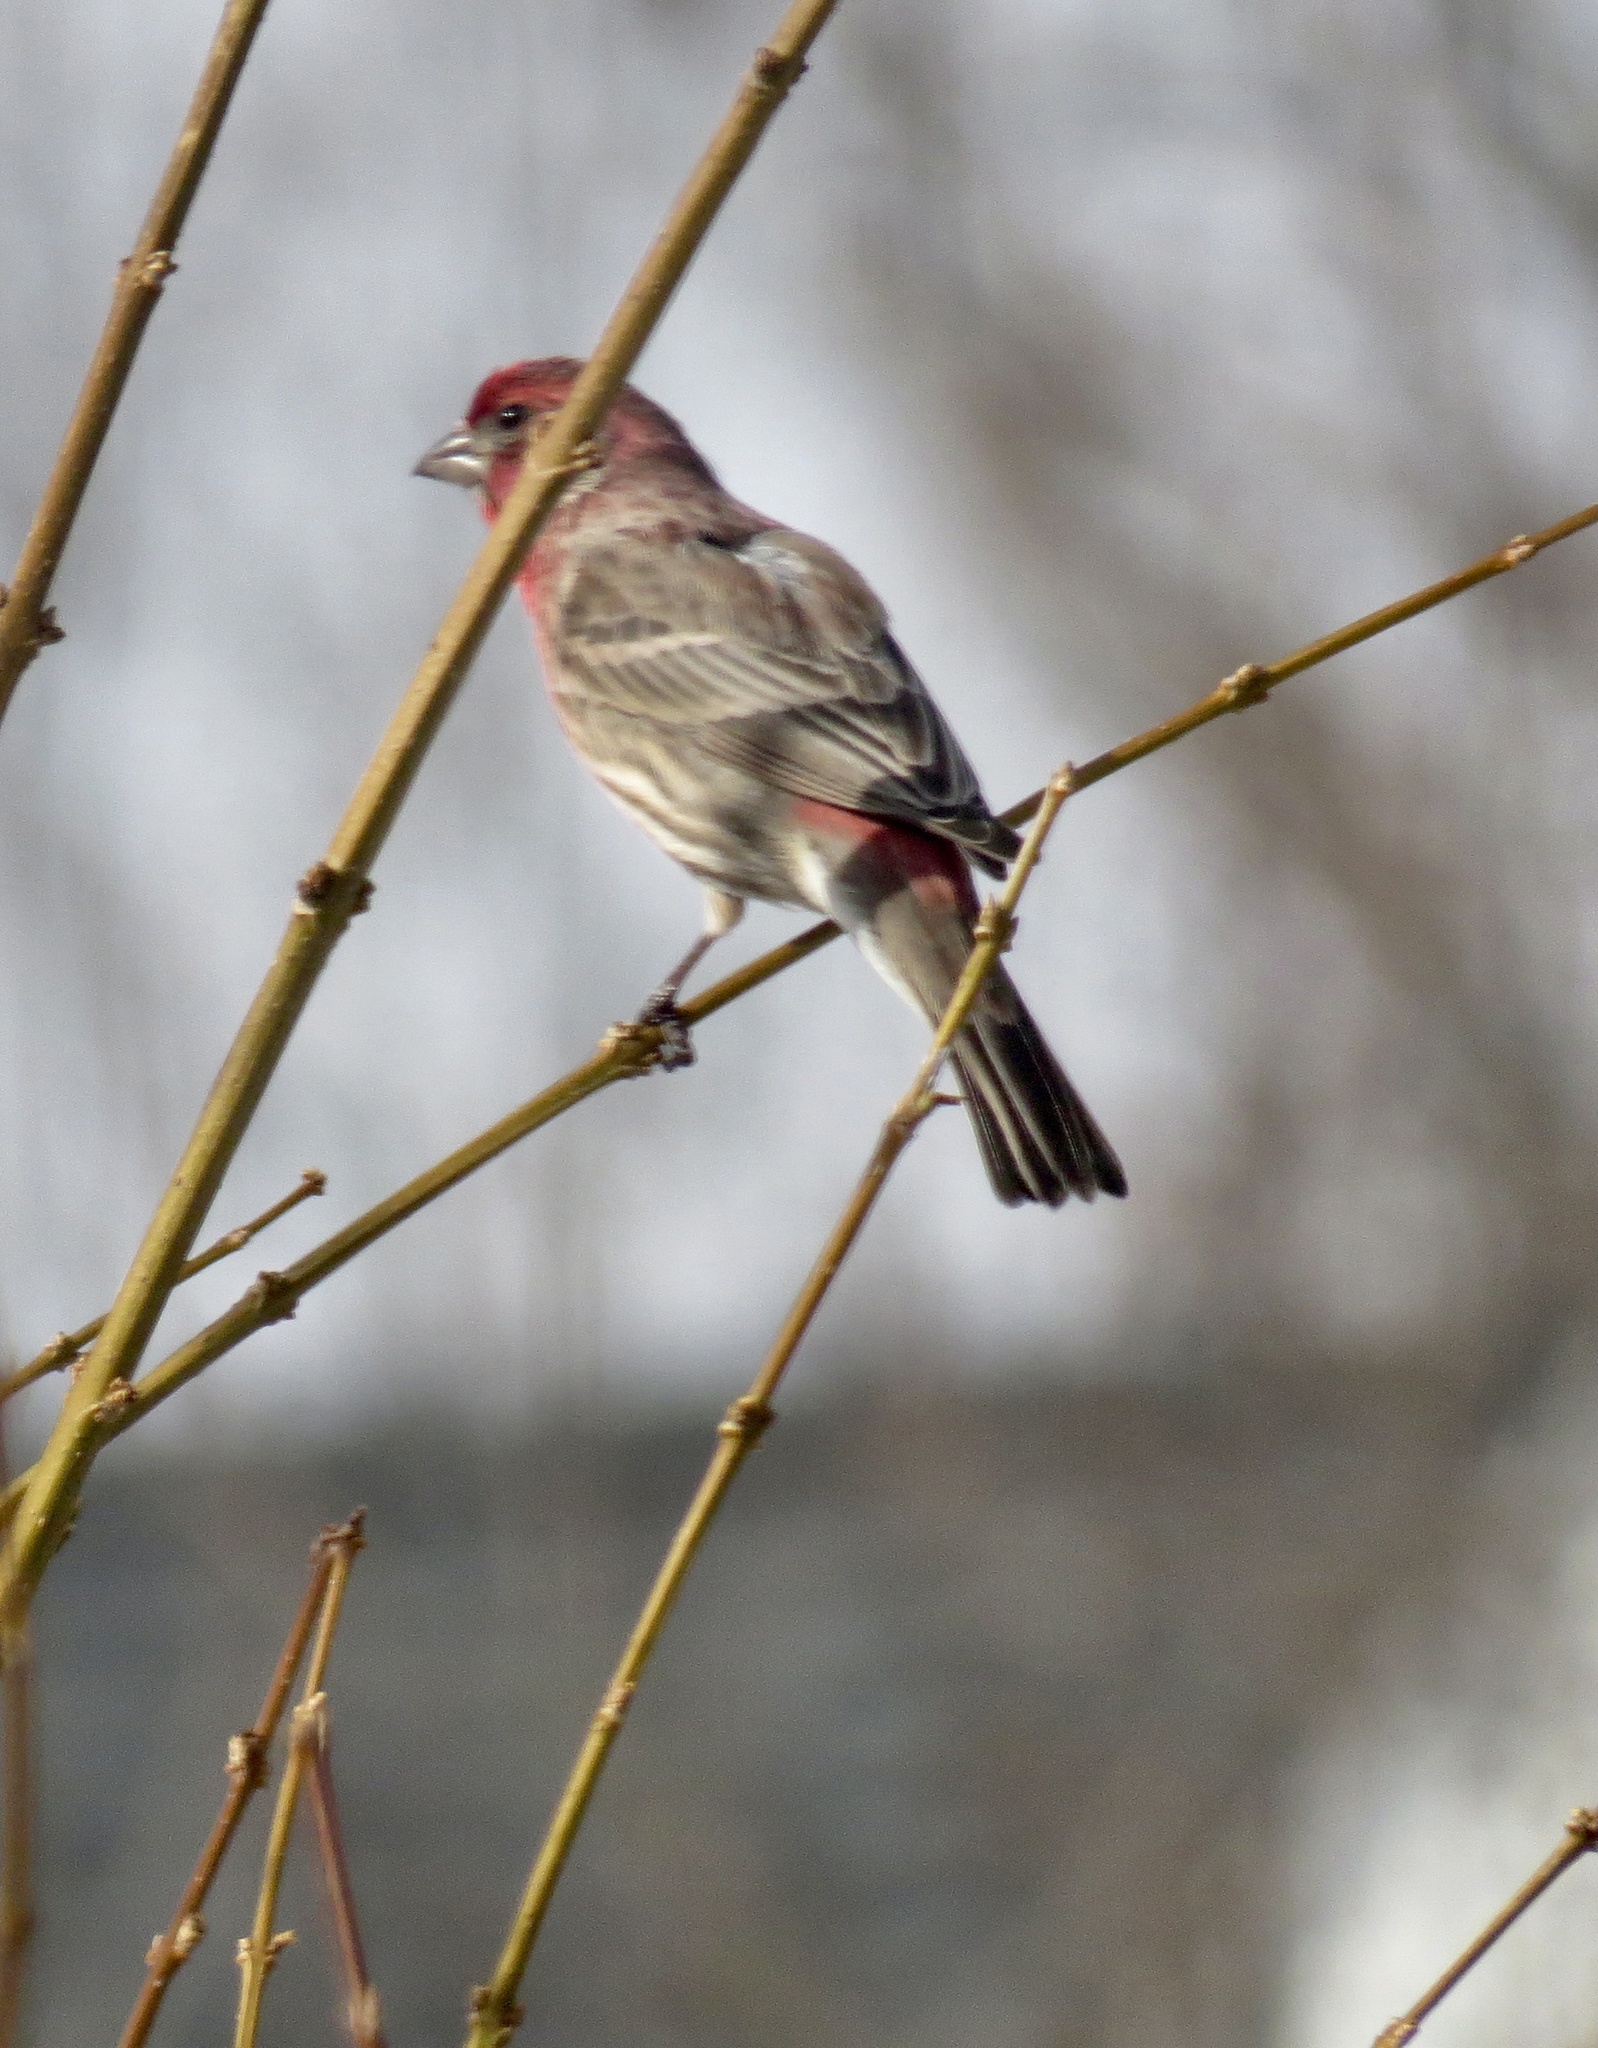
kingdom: Animalia
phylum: Chordata
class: Aves
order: Passeriformes
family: Fringillidae
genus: Haemorhous
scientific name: Haemorhous mexicanus
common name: House finch
